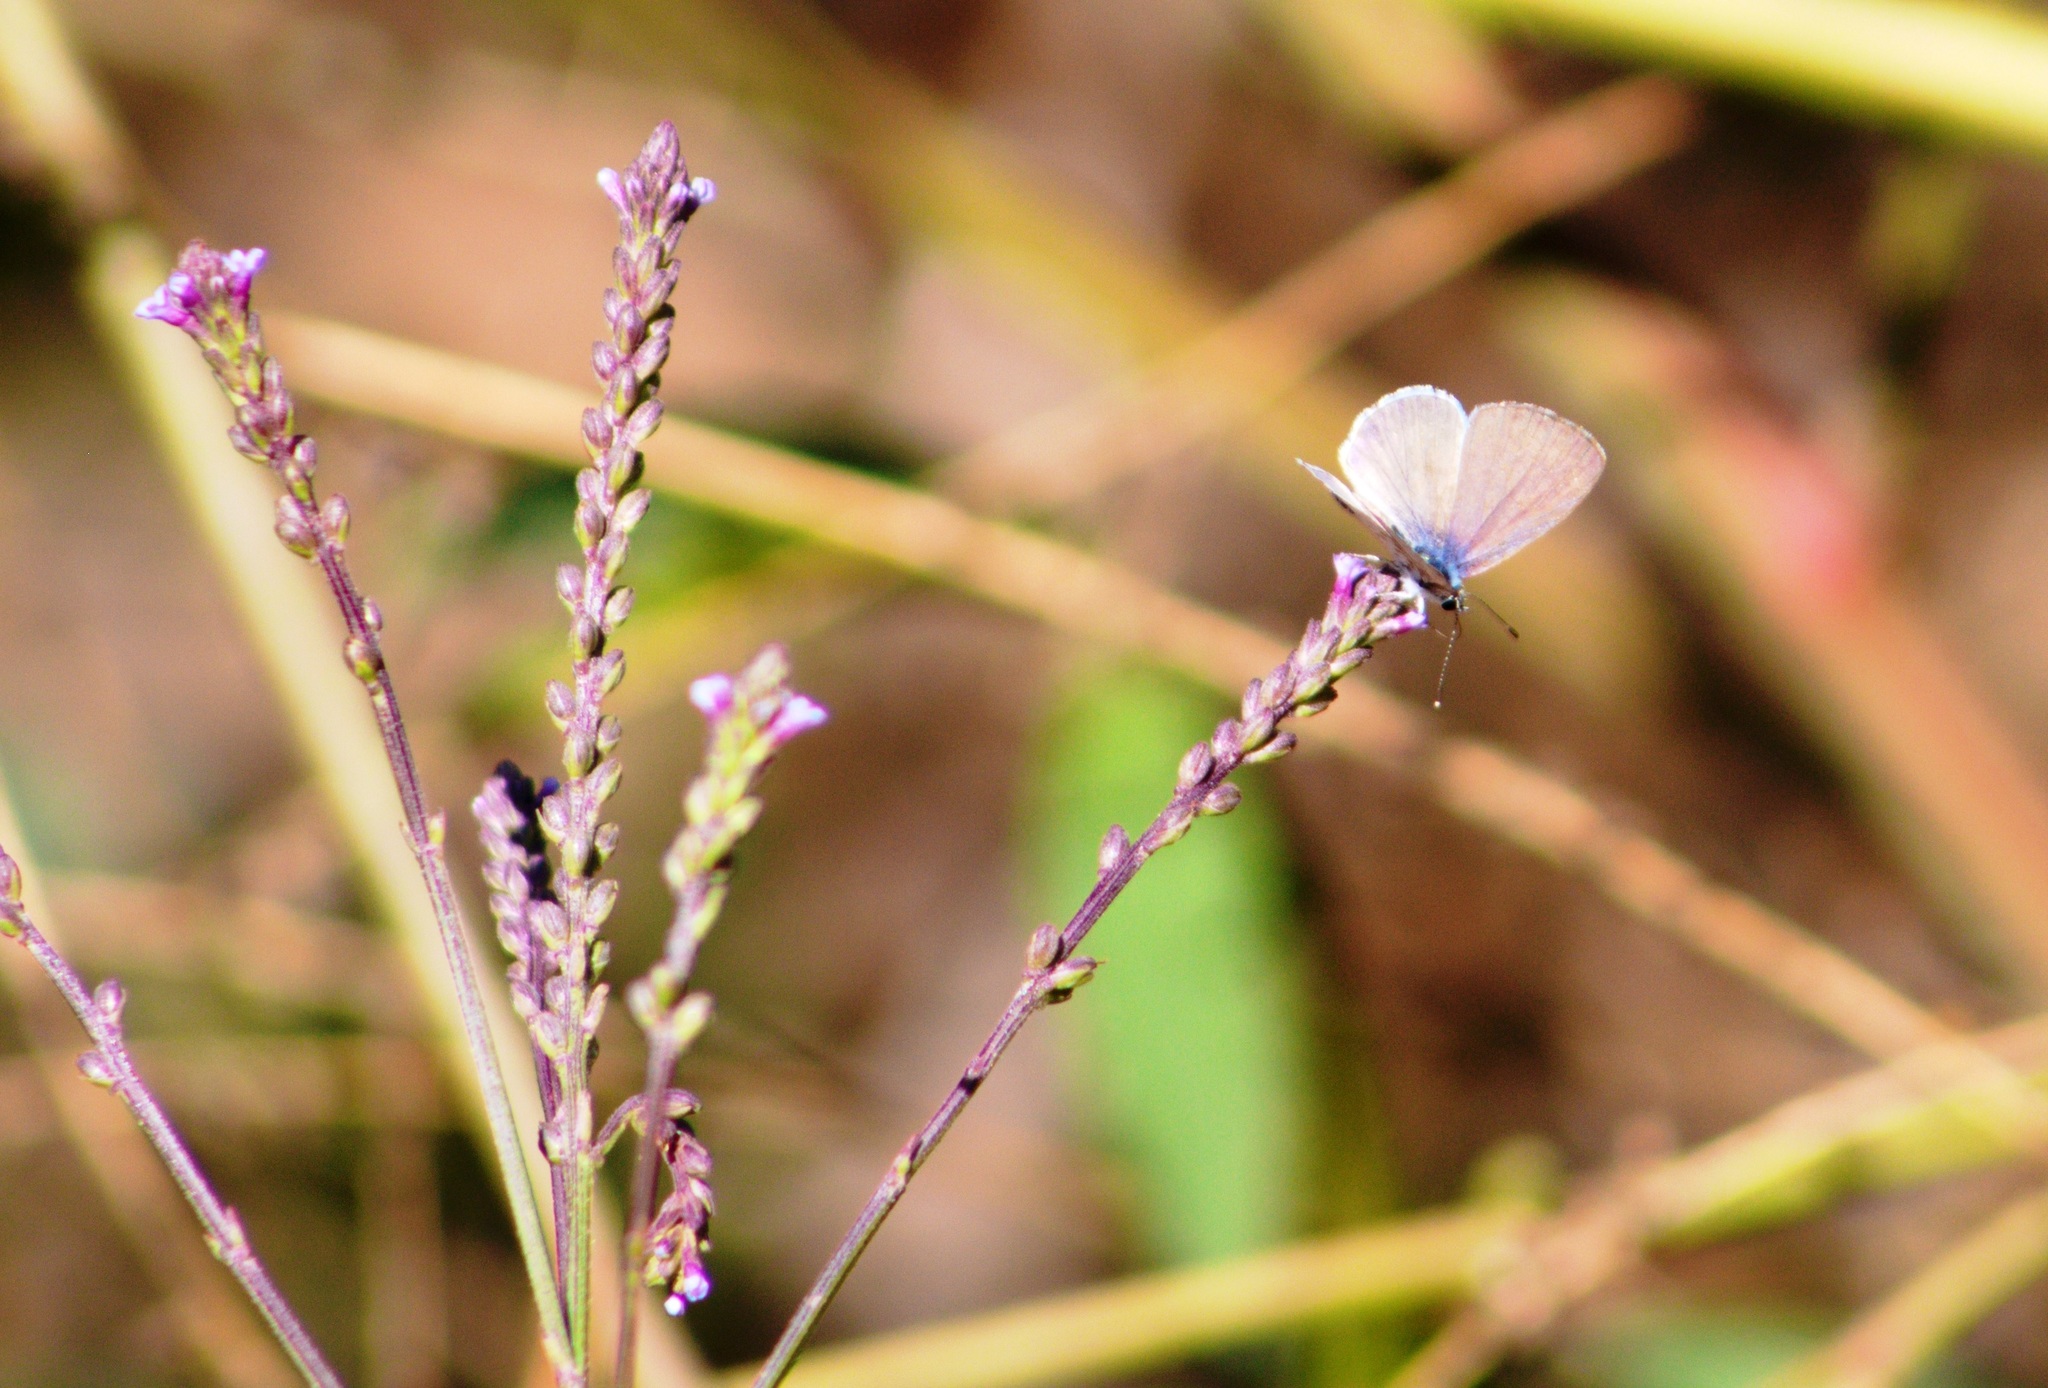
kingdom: Animalia
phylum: Arthropoda
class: Insecta
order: Lepidoptera
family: Lycaenidae
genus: Hemiargus
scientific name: Hemiargus ceraunus
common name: Ceraunus blue
